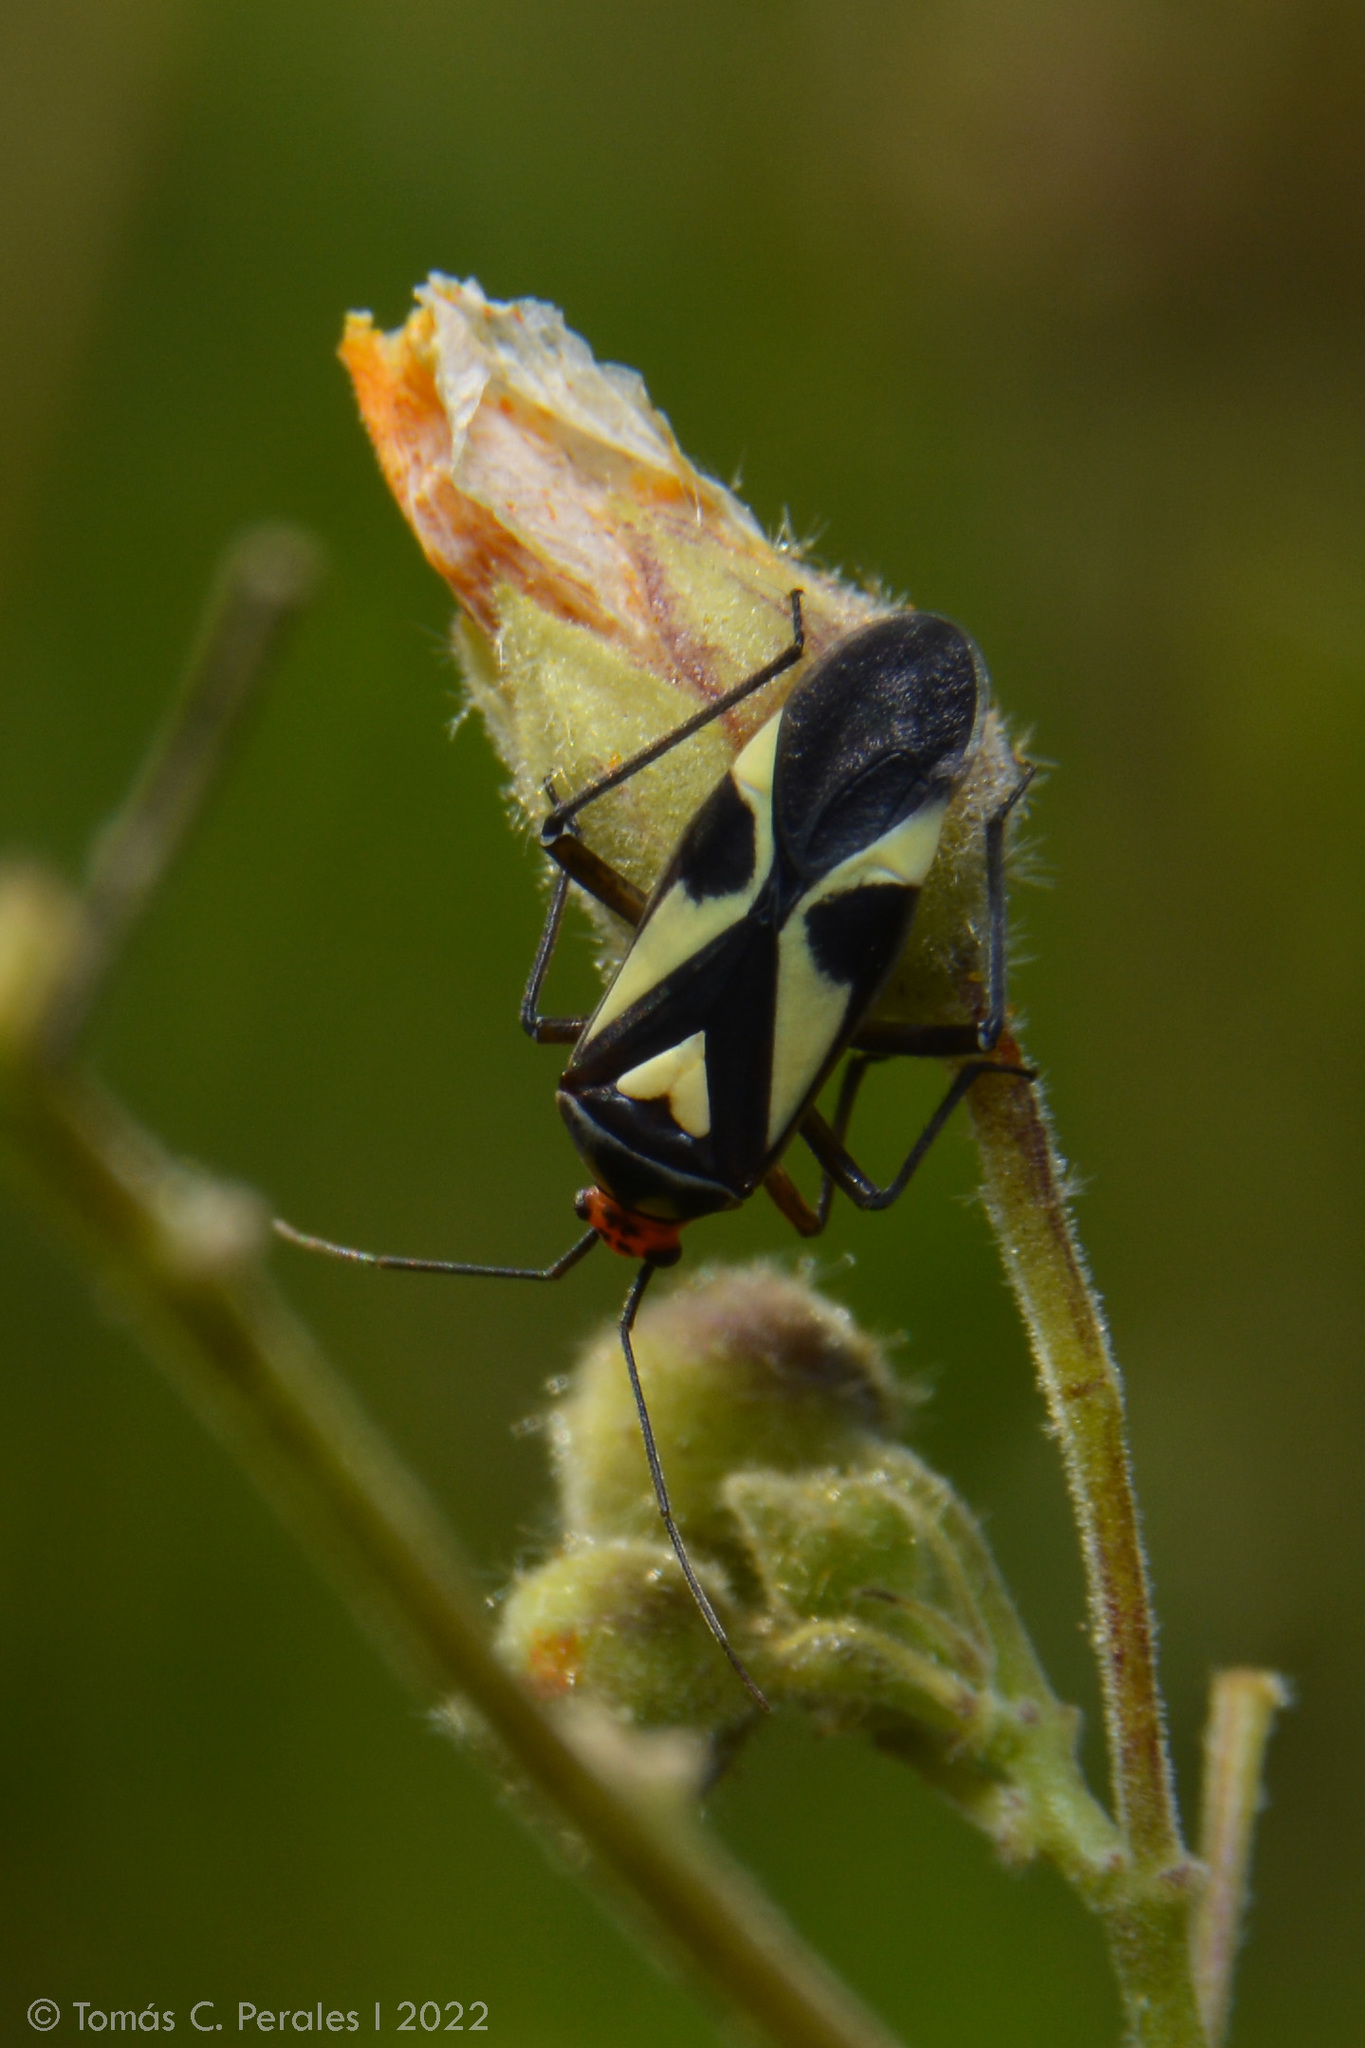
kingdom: Animalia
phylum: Arthropoda
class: Insecta
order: Hemiptera
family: Miridae
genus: Carpinteroa
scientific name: Carpinteroa notabilis
